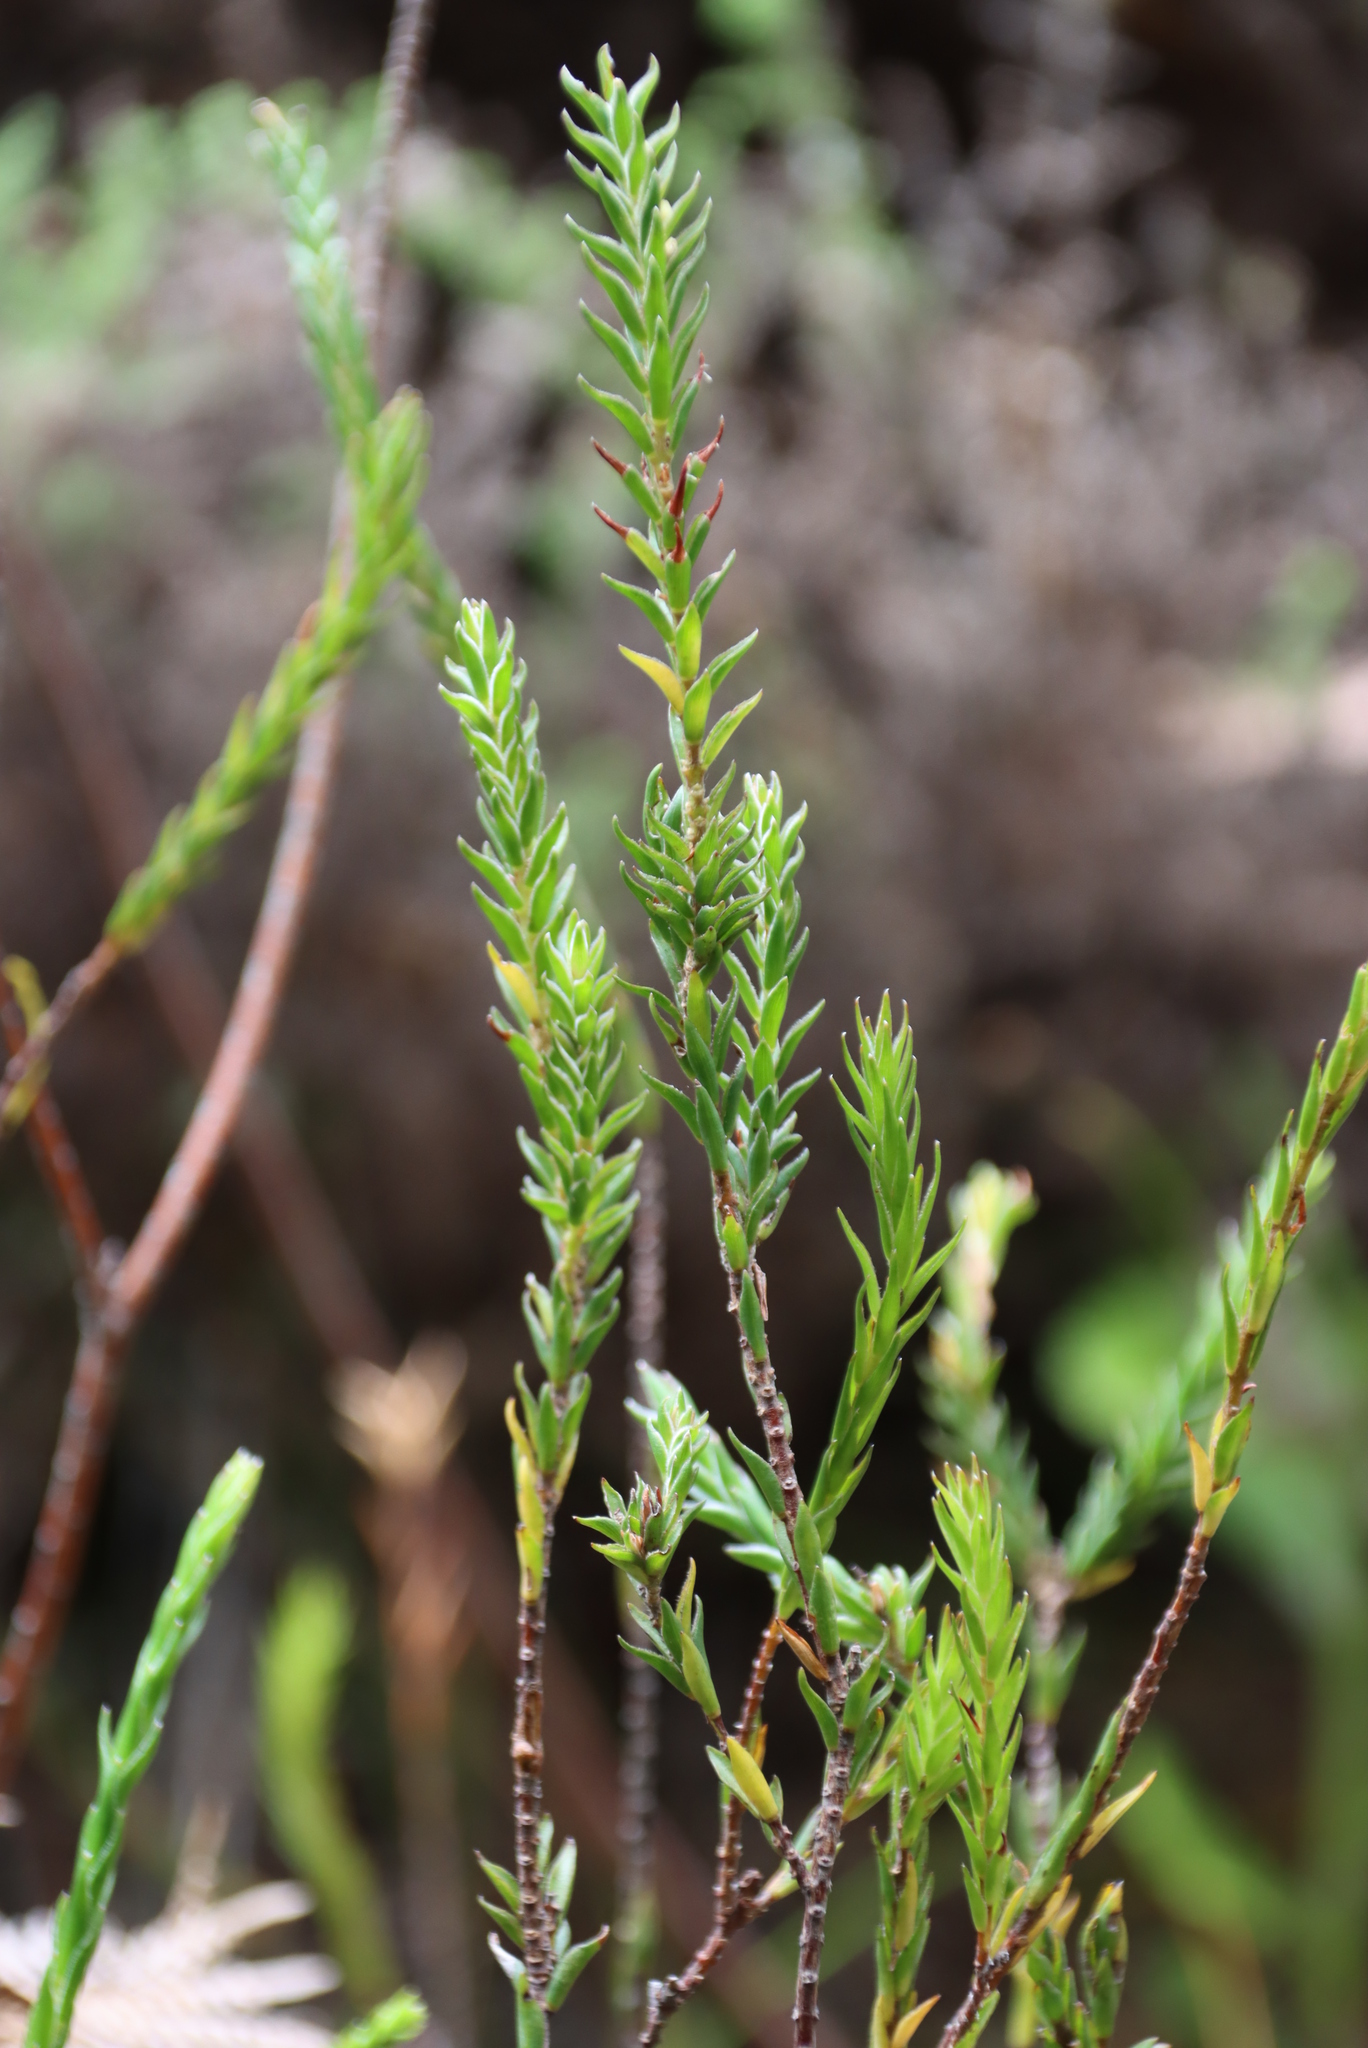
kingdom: Plantae
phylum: Tracheophyta
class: Magnoliopsida
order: Malvales
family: Thymelaeaceae
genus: Struthiola
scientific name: Struthiola striata
